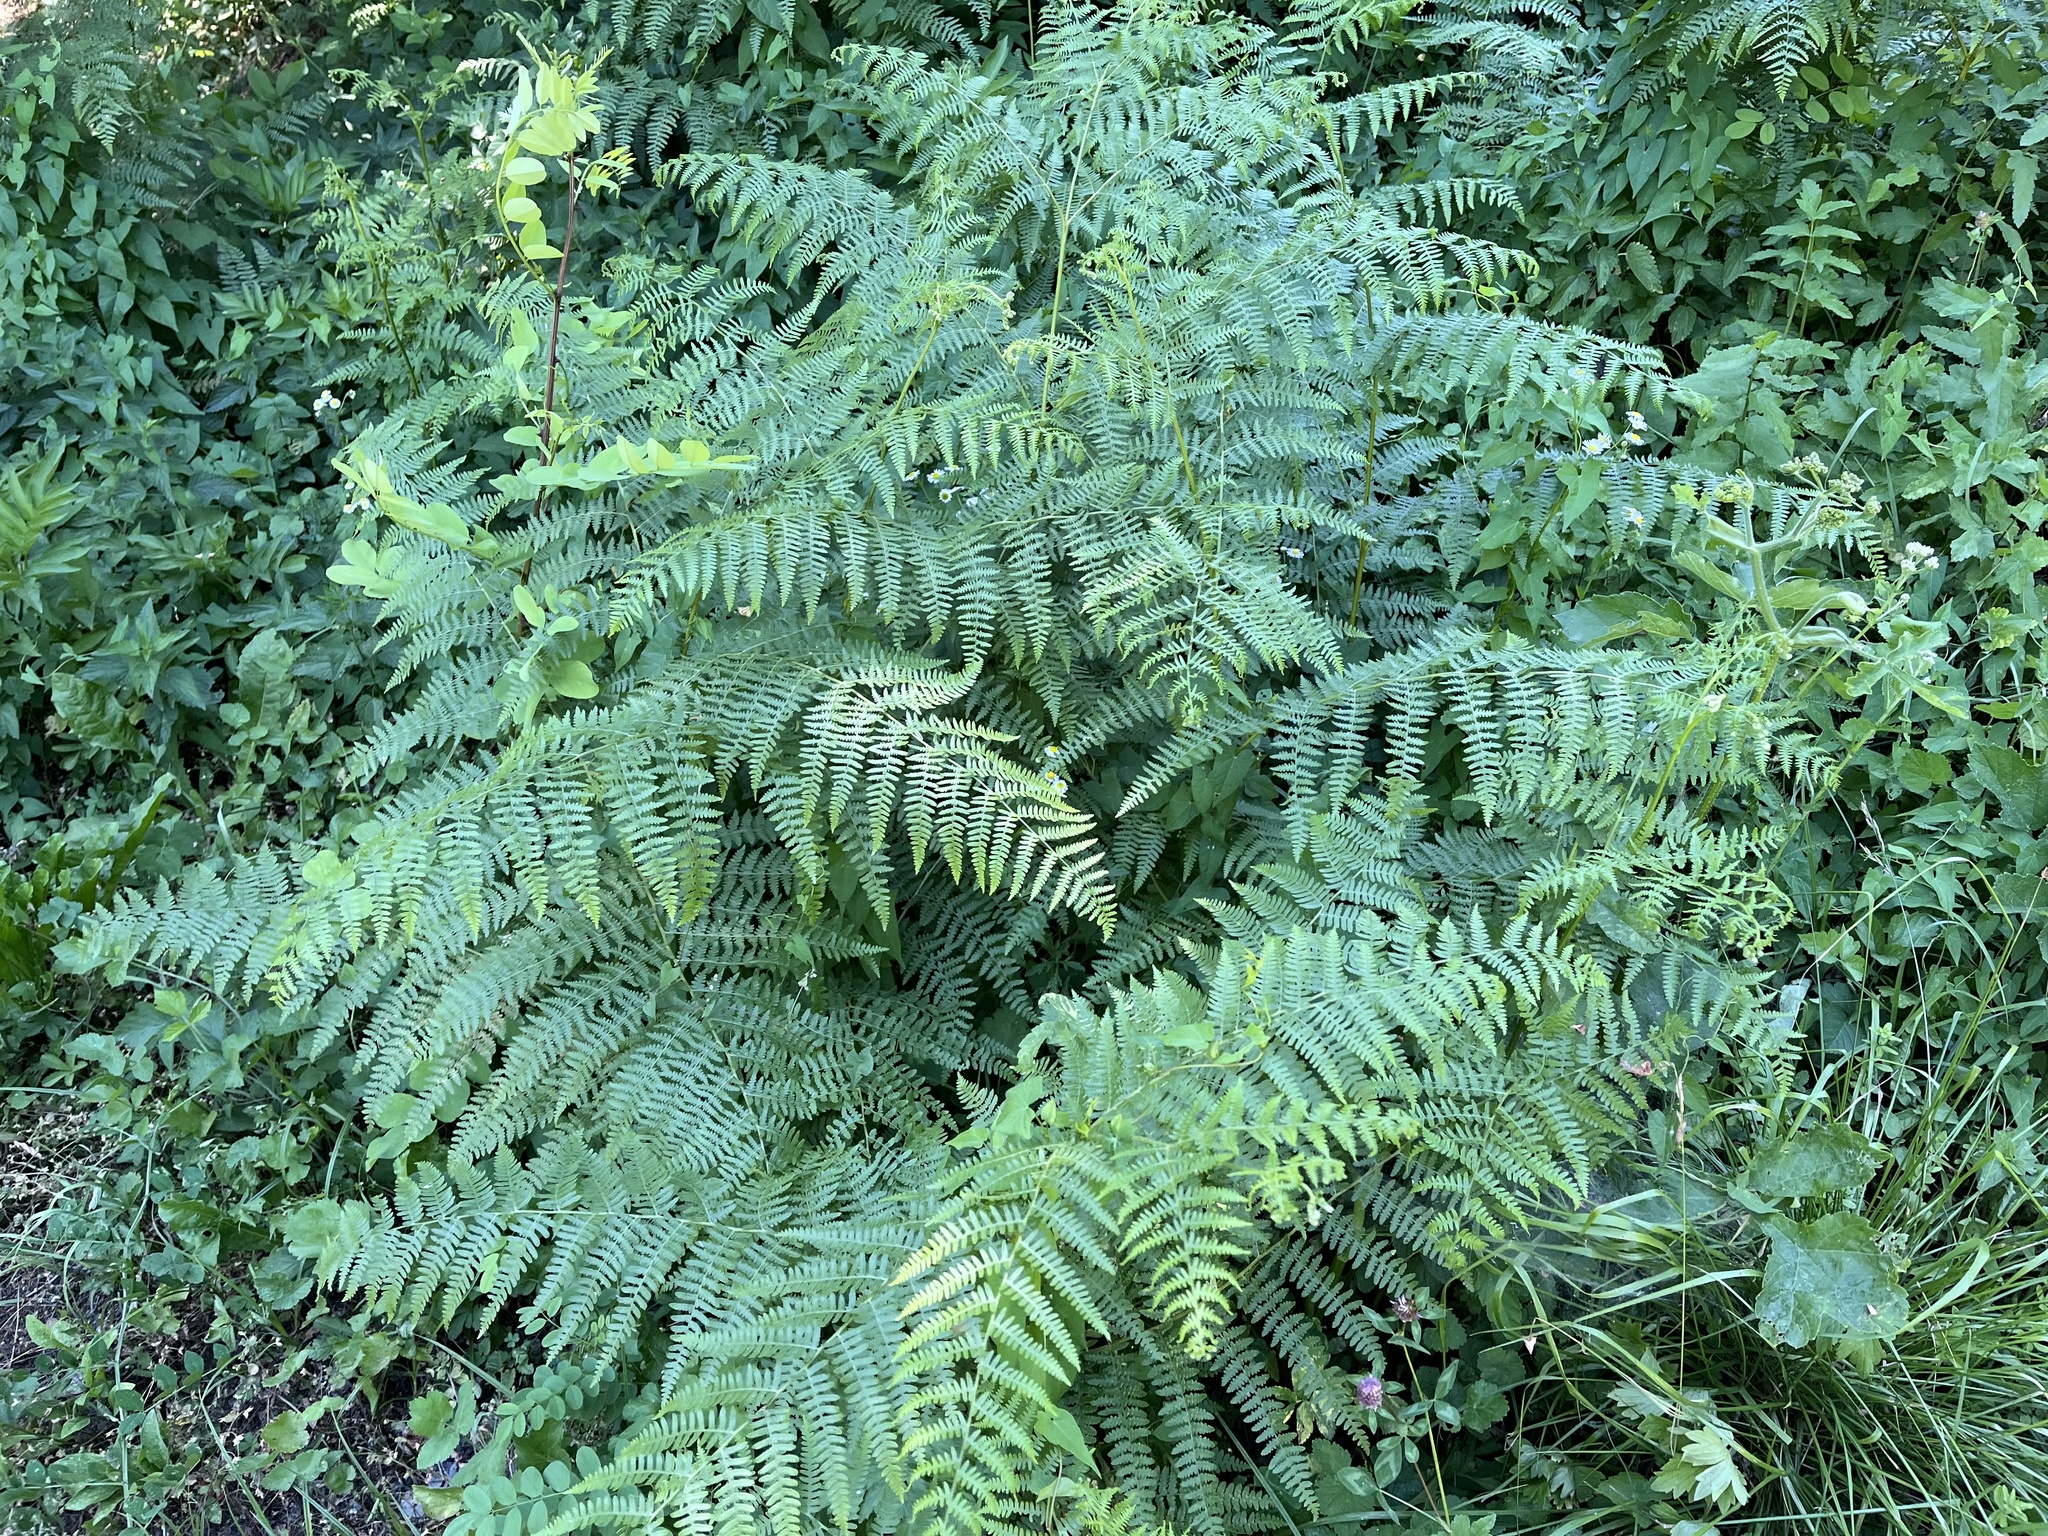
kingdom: Plantae
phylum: Tracheophyta
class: Polypodiopsida
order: Polypodiales
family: Dennstaedtiaceae
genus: Pteridium
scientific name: Pteridium aquilinum
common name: Bracken
